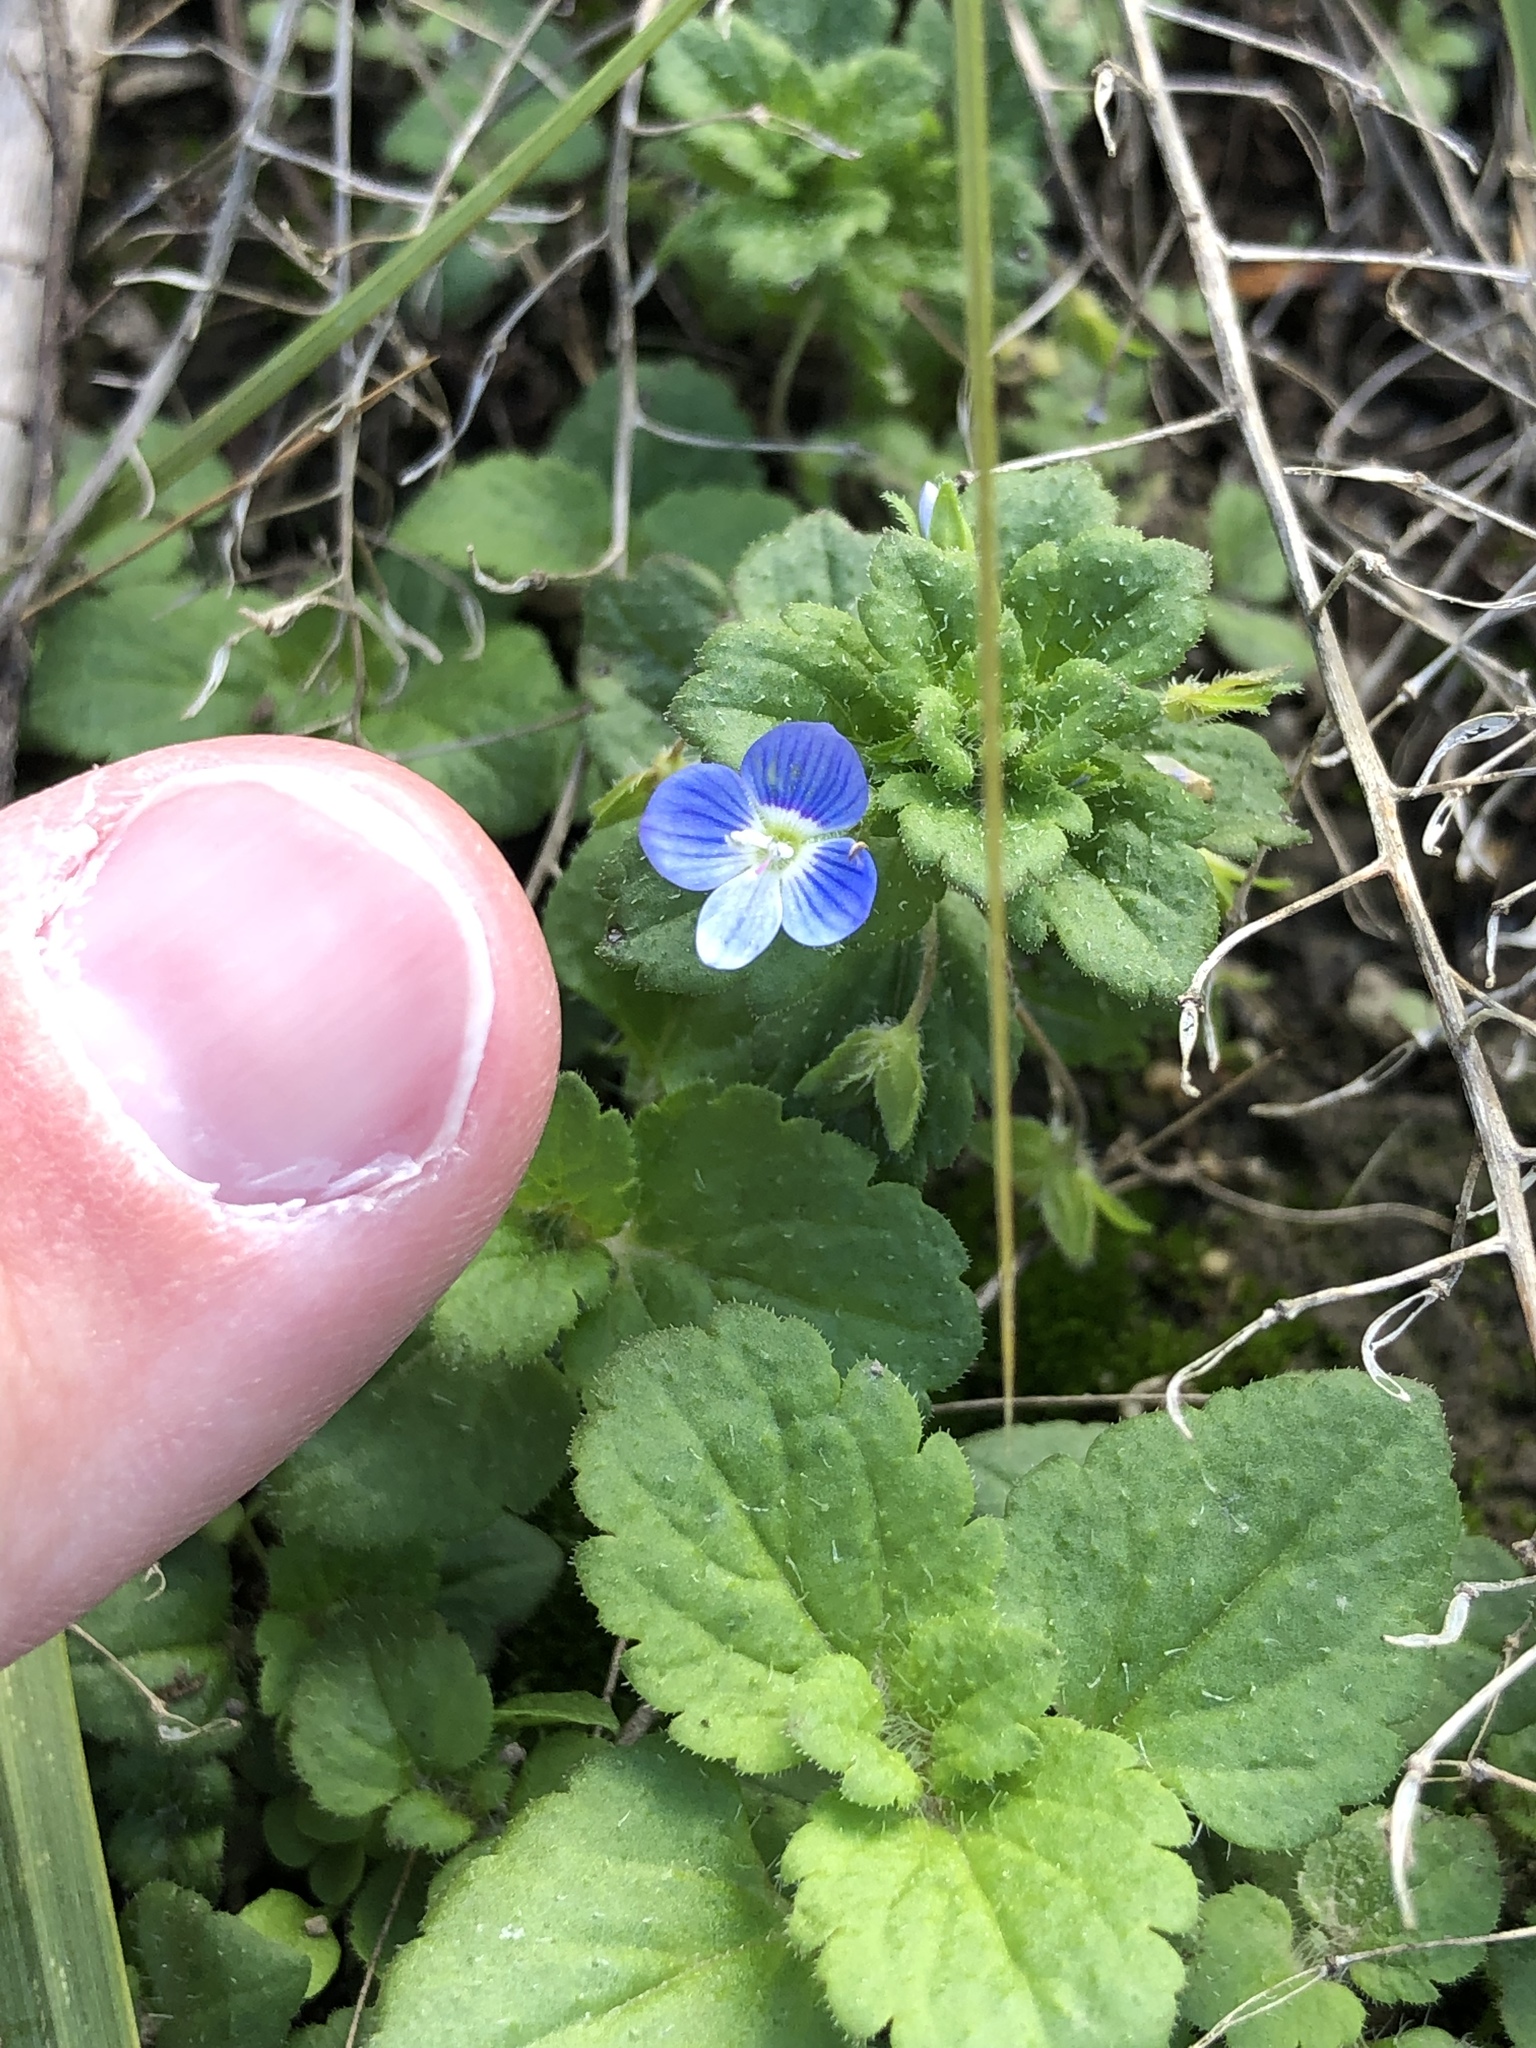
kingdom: Plantae
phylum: Tracheophyta
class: Magnoliopsida
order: Lamiales
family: Plantaginaceae
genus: Veronica
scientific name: Veronica persica
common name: Common field-speedwell
